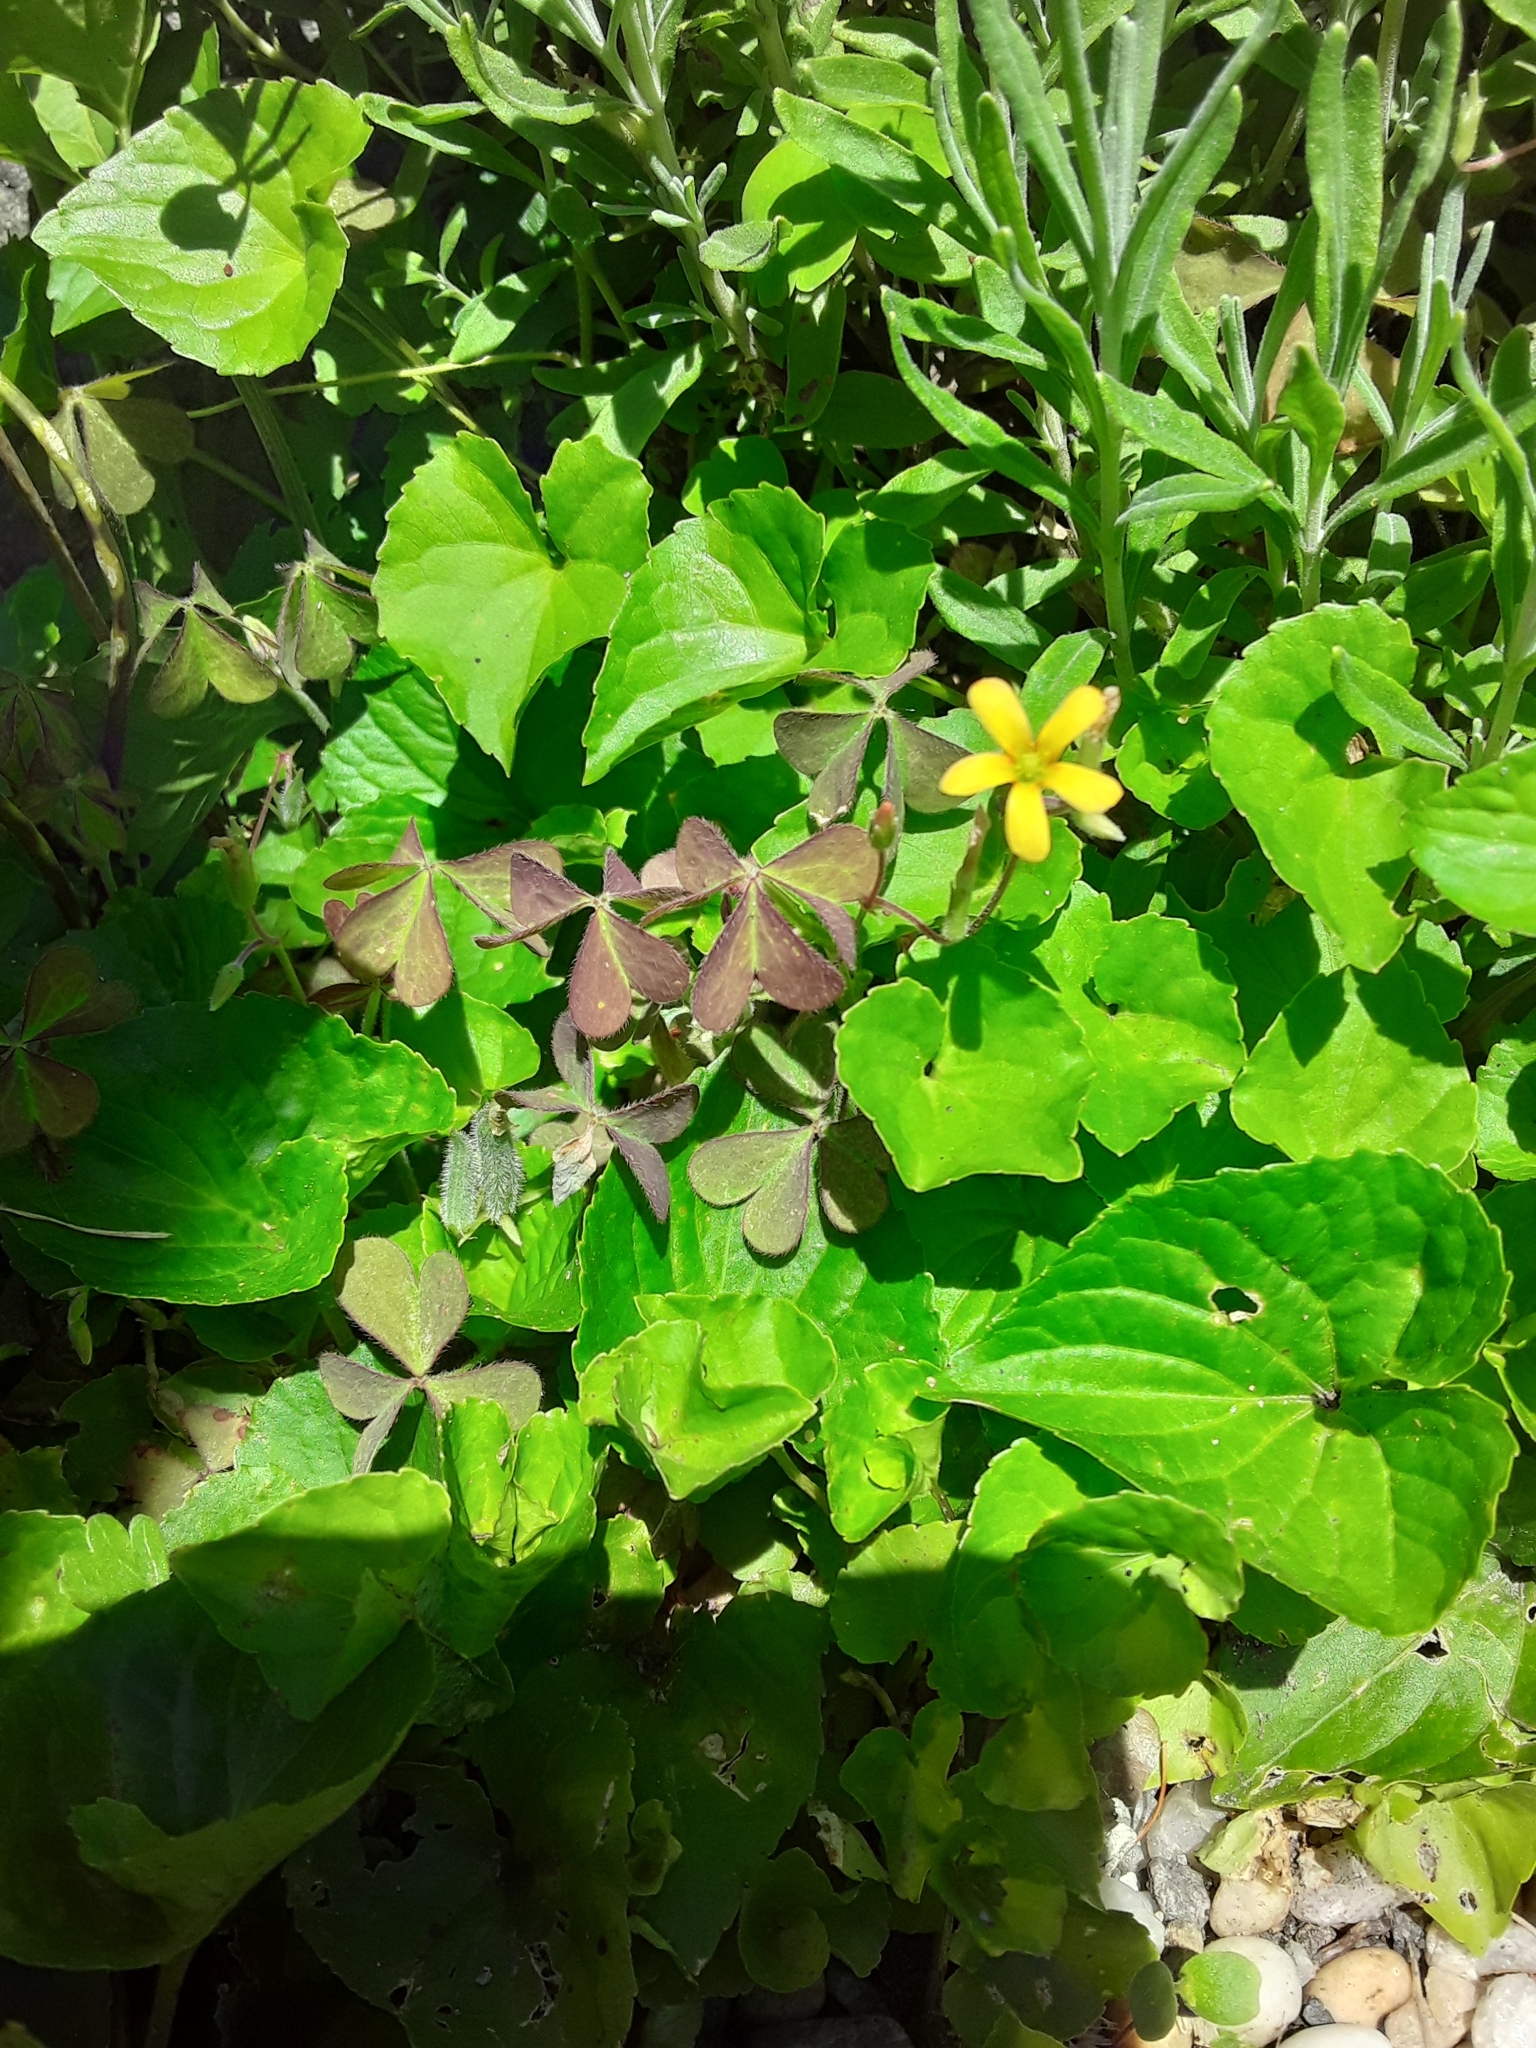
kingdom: Plantae
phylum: Tracheophyta
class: Magnoliopsida
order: Oxalidales
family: Oxalidaceae
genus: Oxalis
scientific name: Oxalis corniculata
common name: Procumbent yellow-sorrel
